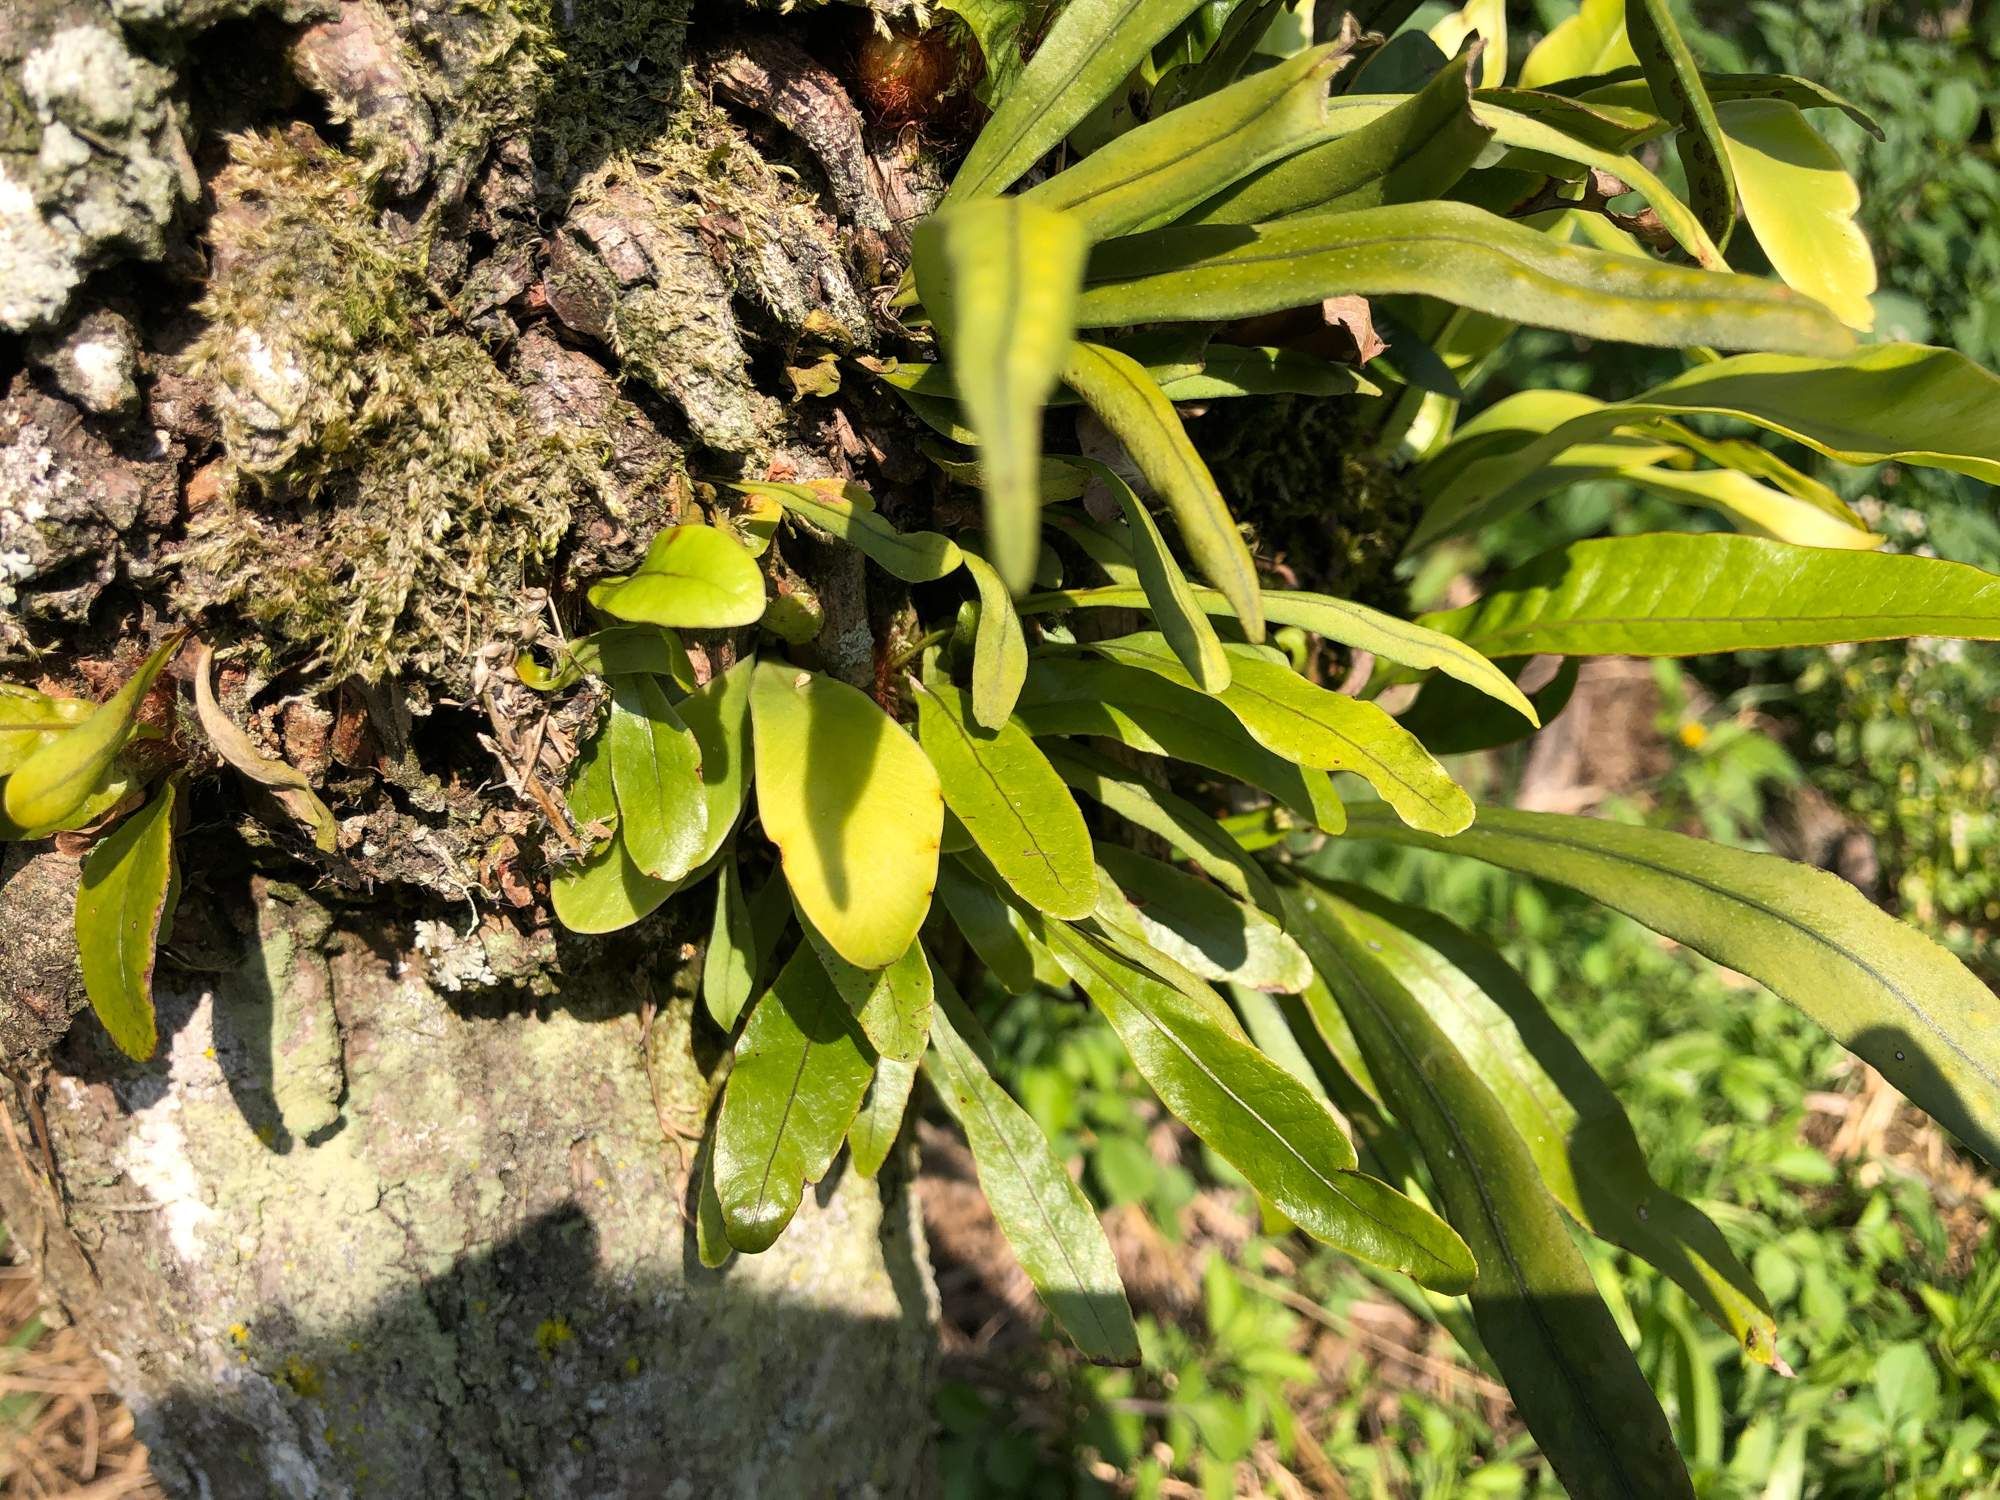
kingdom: Plantae
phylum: Tracheophyta
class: Polypodiopsida
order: Polypodiales
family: Polypodiaceae
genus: Lepisorus
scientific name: Lepisorus thunbergianus
